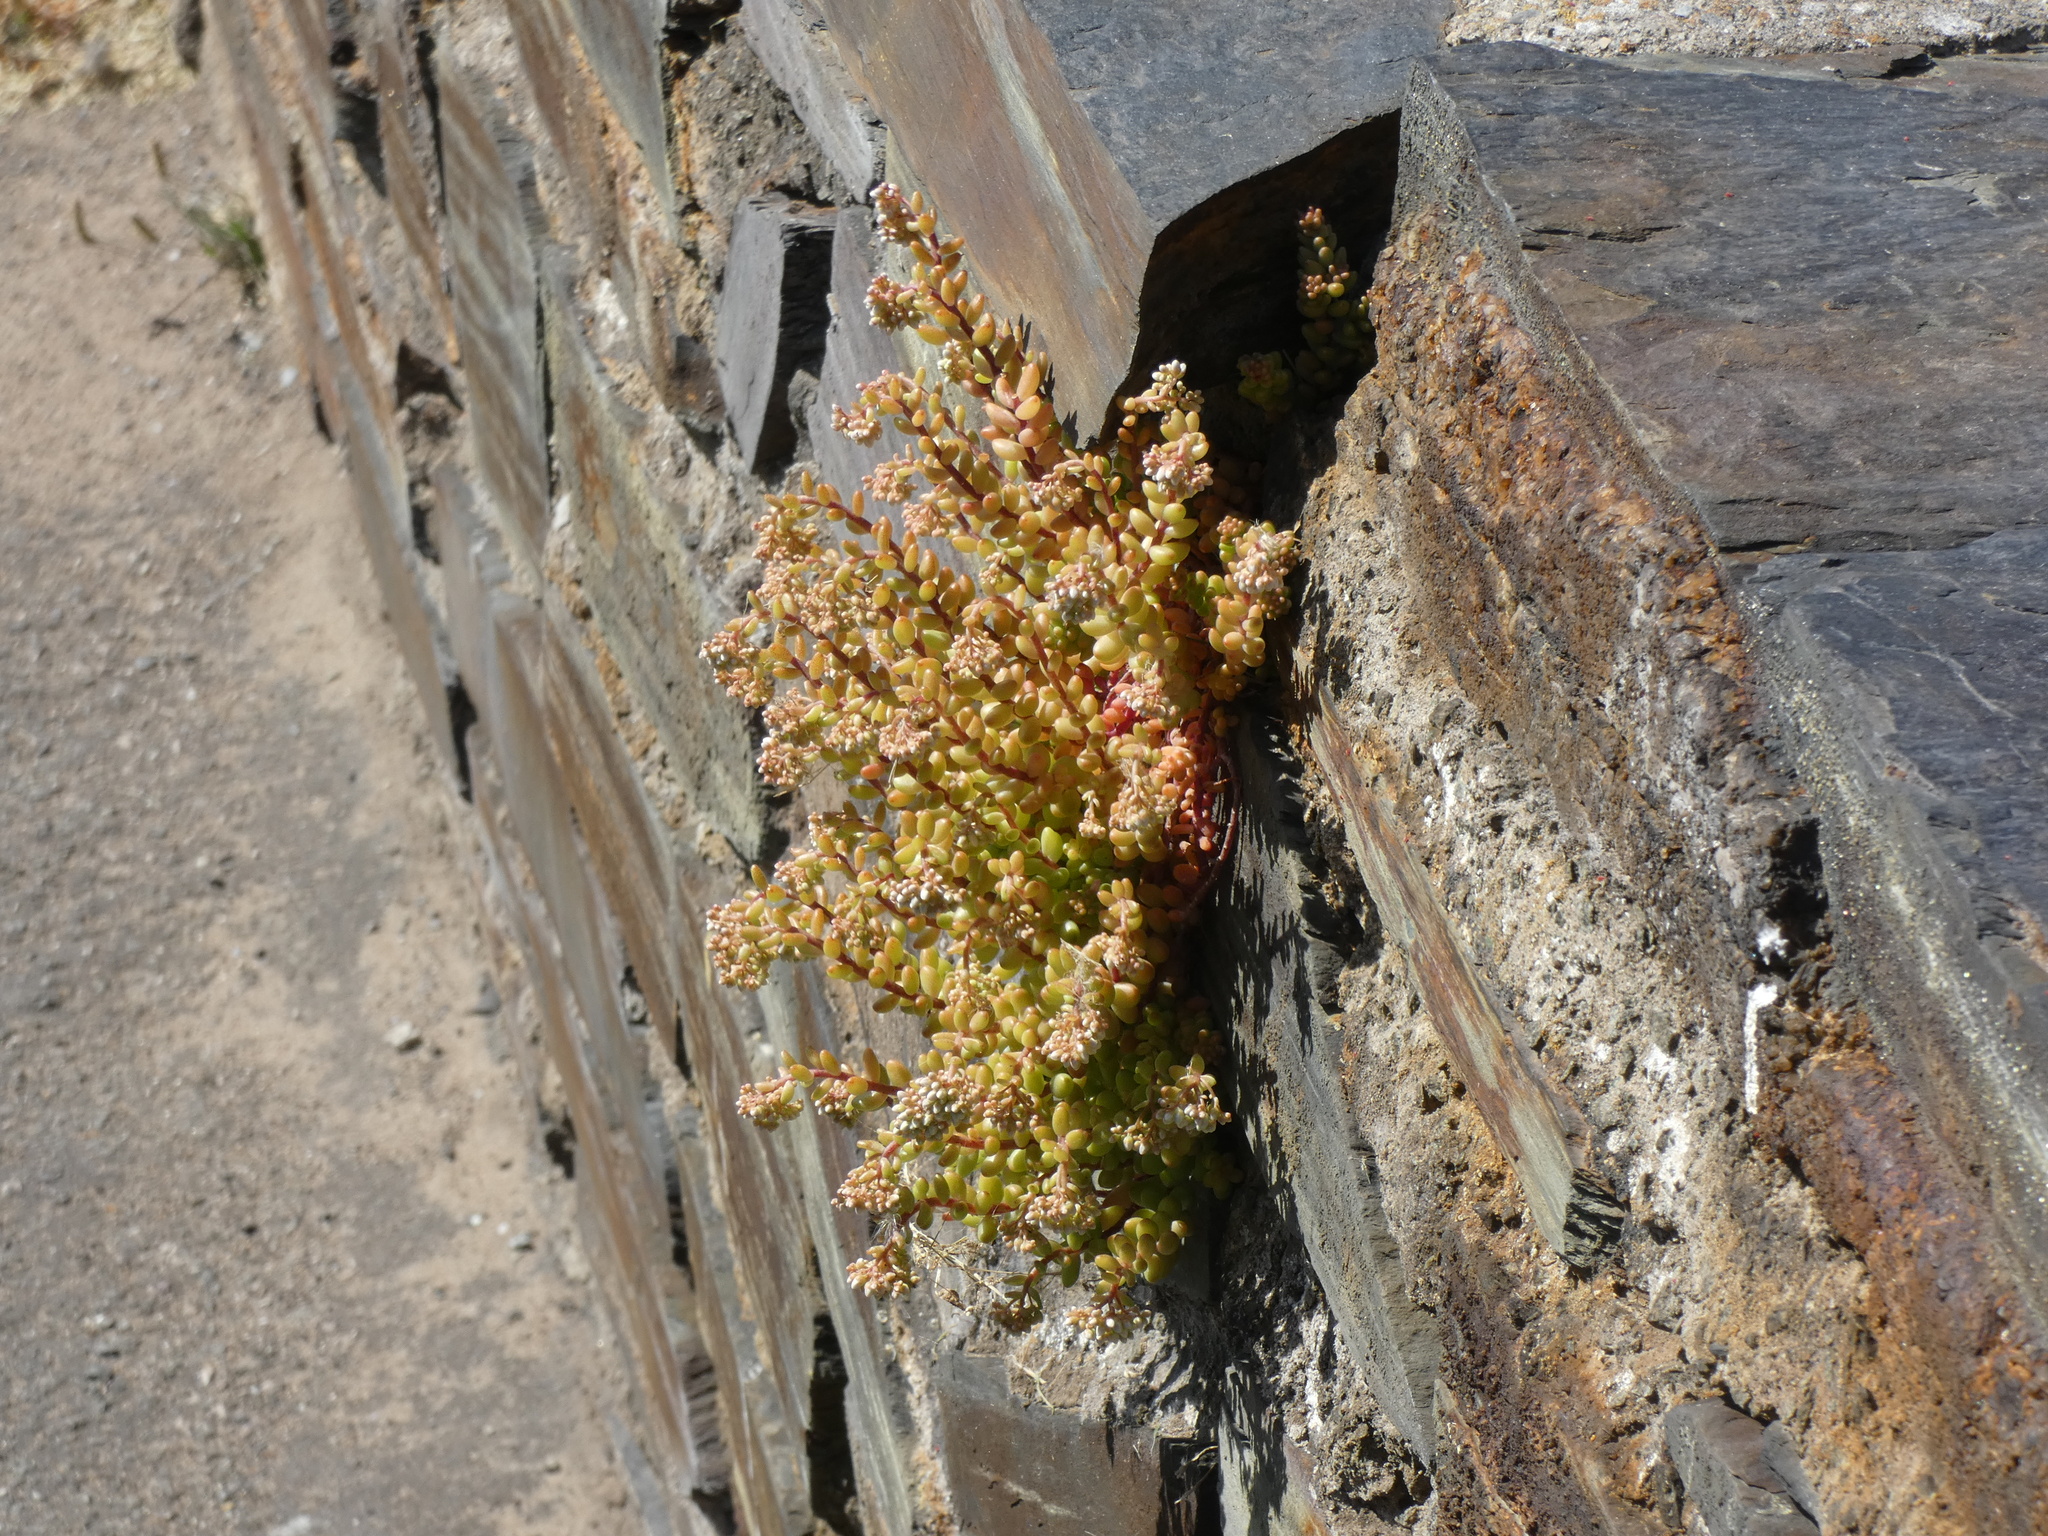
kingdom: Plantae
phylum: Tracheophyta
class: Magnoliopsida
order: Saxifragales
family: Crassulaceae
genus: Sedum
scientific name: Sedum album
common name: White stonecrop
